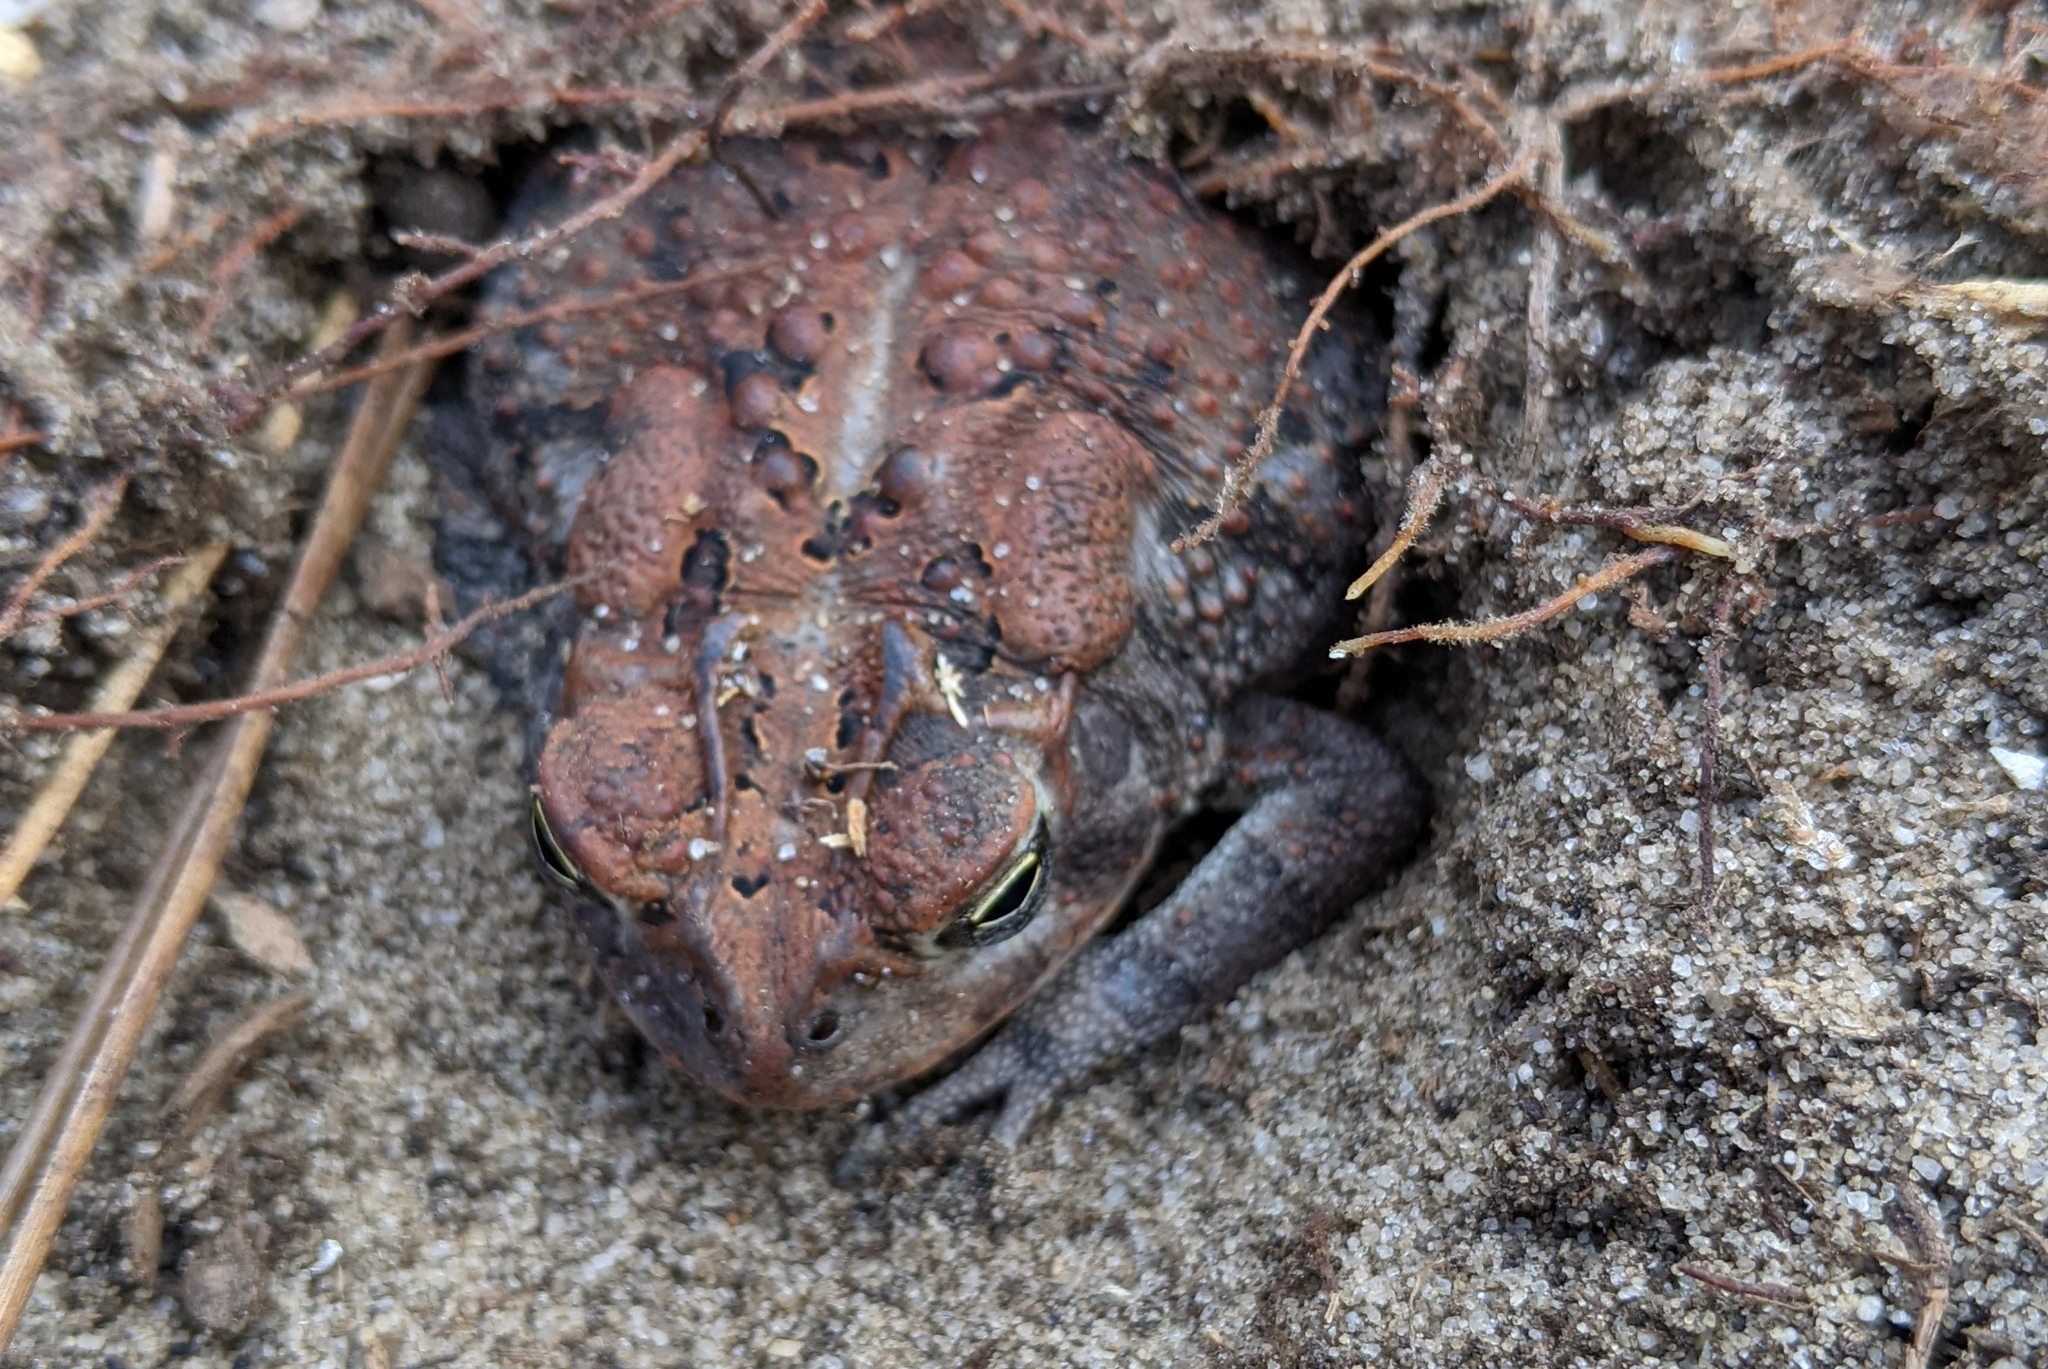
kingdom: Animalia
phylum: Chordata
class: Amphibia
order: Anura
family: Bufonidae
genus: Anaxyrus
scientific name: Anaxyrus terrestris
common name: Southern toad
